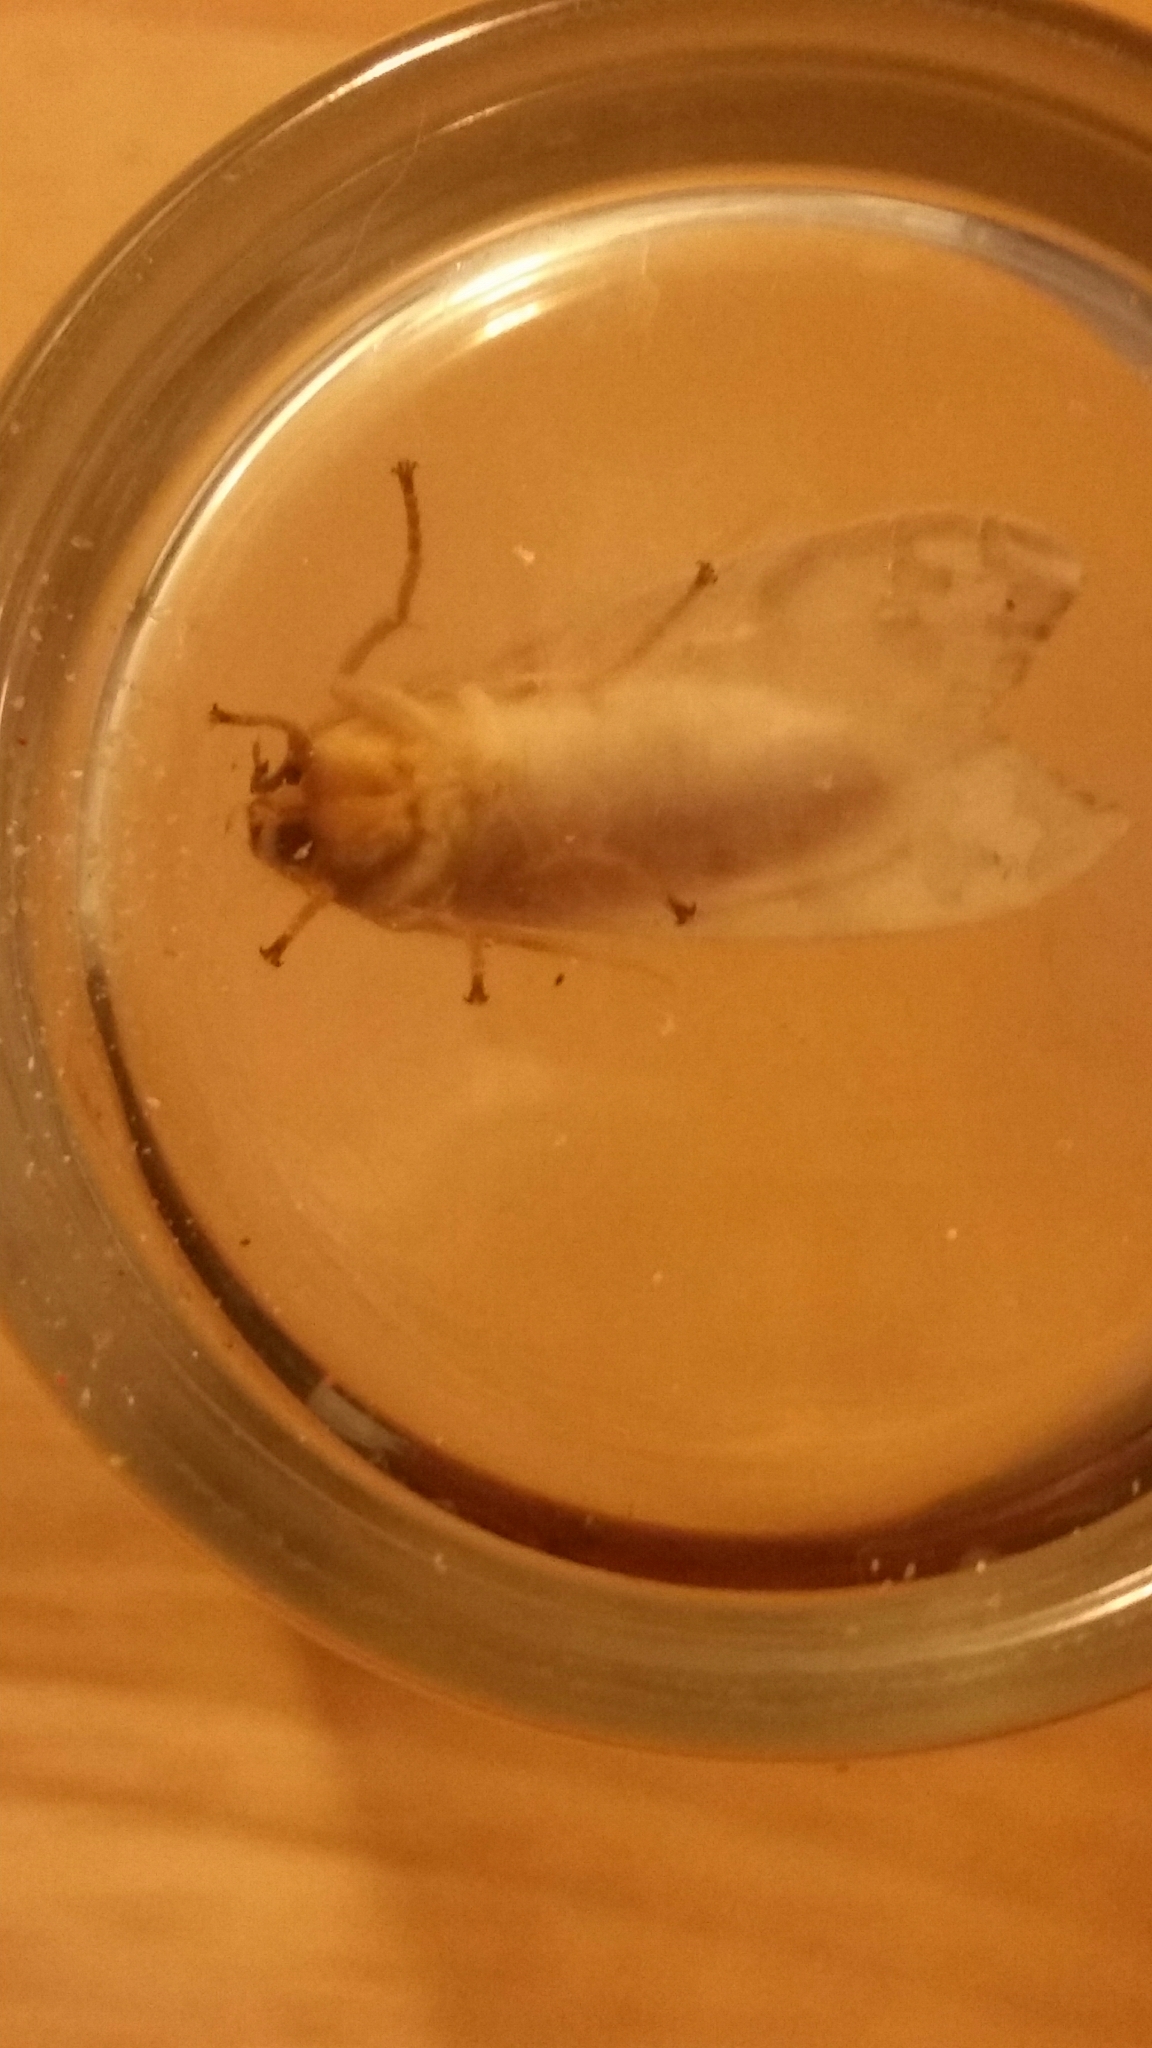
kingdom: Animalia
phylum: Arthropoda
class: Insecta
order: Lepidoptera
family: Erebidae
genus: Halysidota
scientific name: Halysidota
